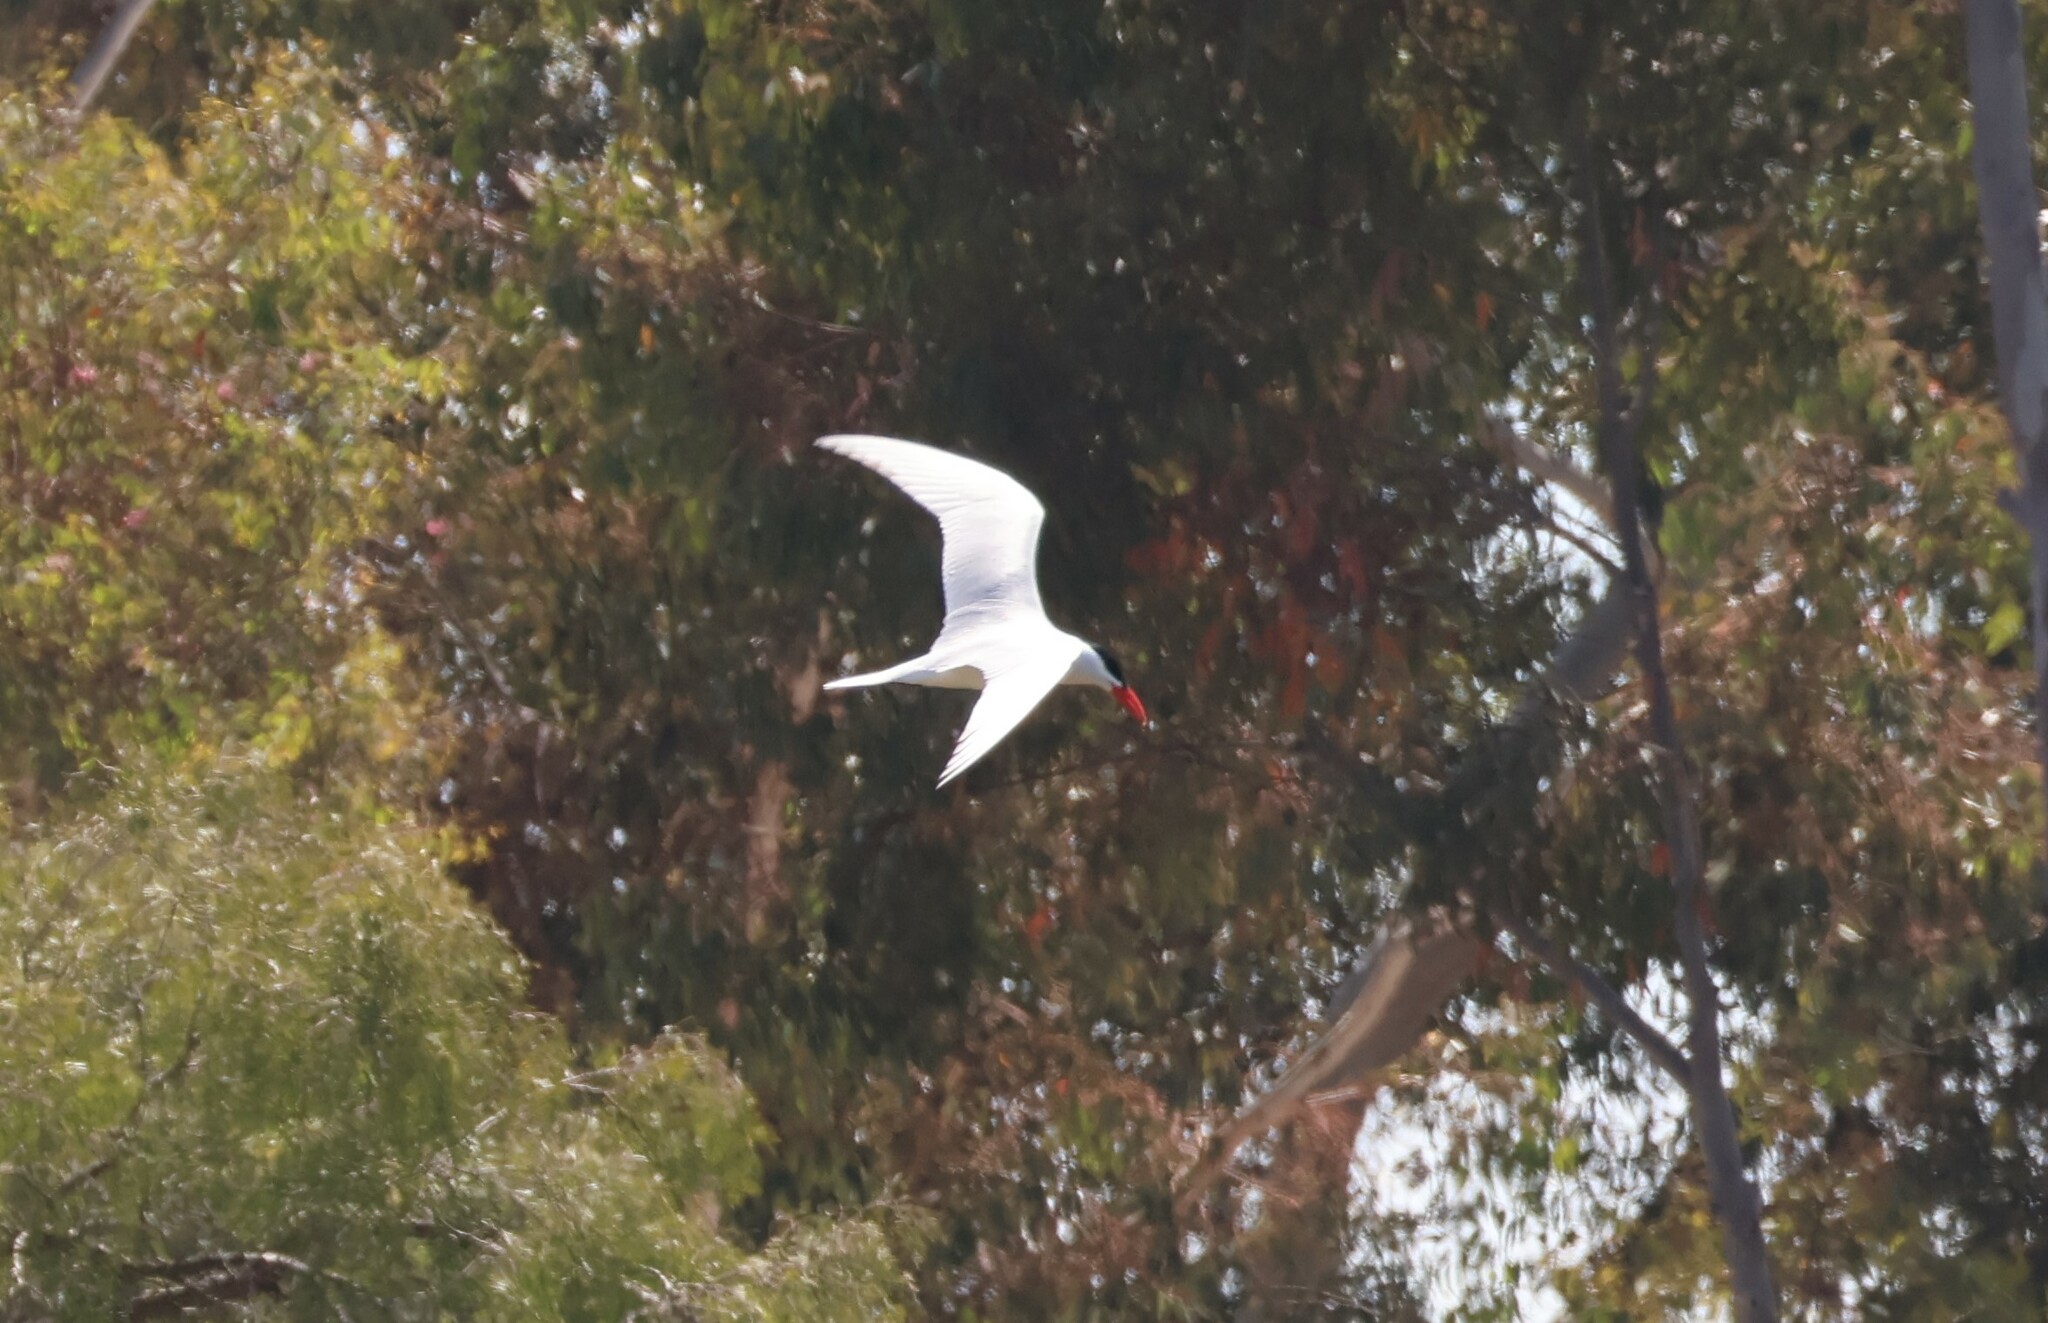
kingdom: Animalia
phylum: Chordata
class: Aves
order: Charadriiformes
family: Laridae
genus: Hydroprogne
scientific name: Hydroprogne caspia
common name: Caspian tern
